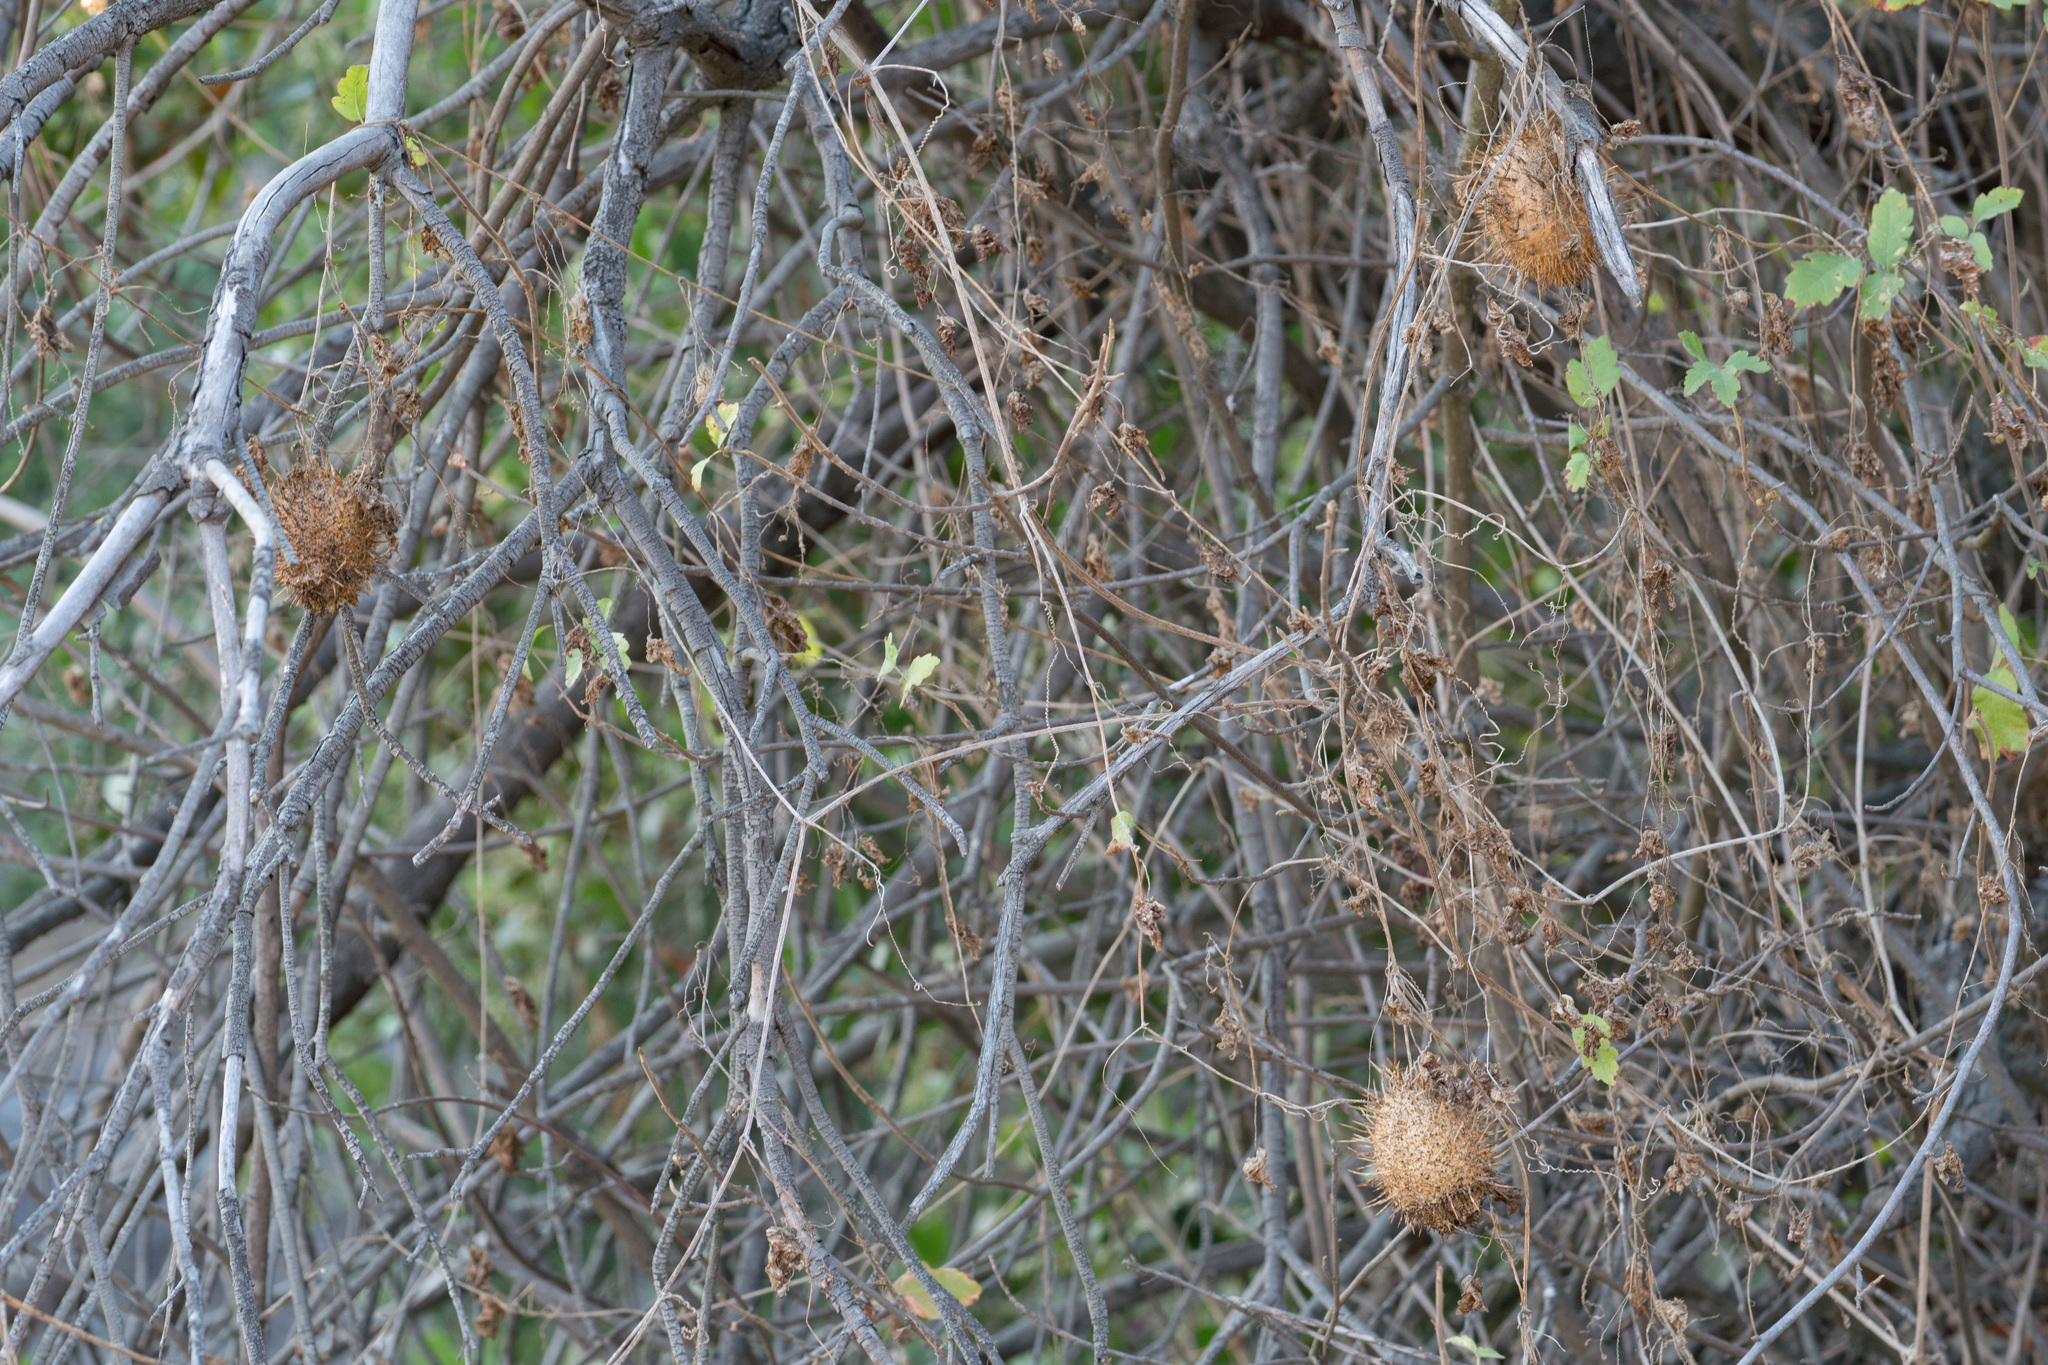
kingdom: Plantae
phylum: Tracheophyta
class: Magnoliopsida
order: Cucurbitales
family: Cucurbitaceae
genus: Marah
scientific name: Marah macrocarpa
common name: Cucamonga manroot
